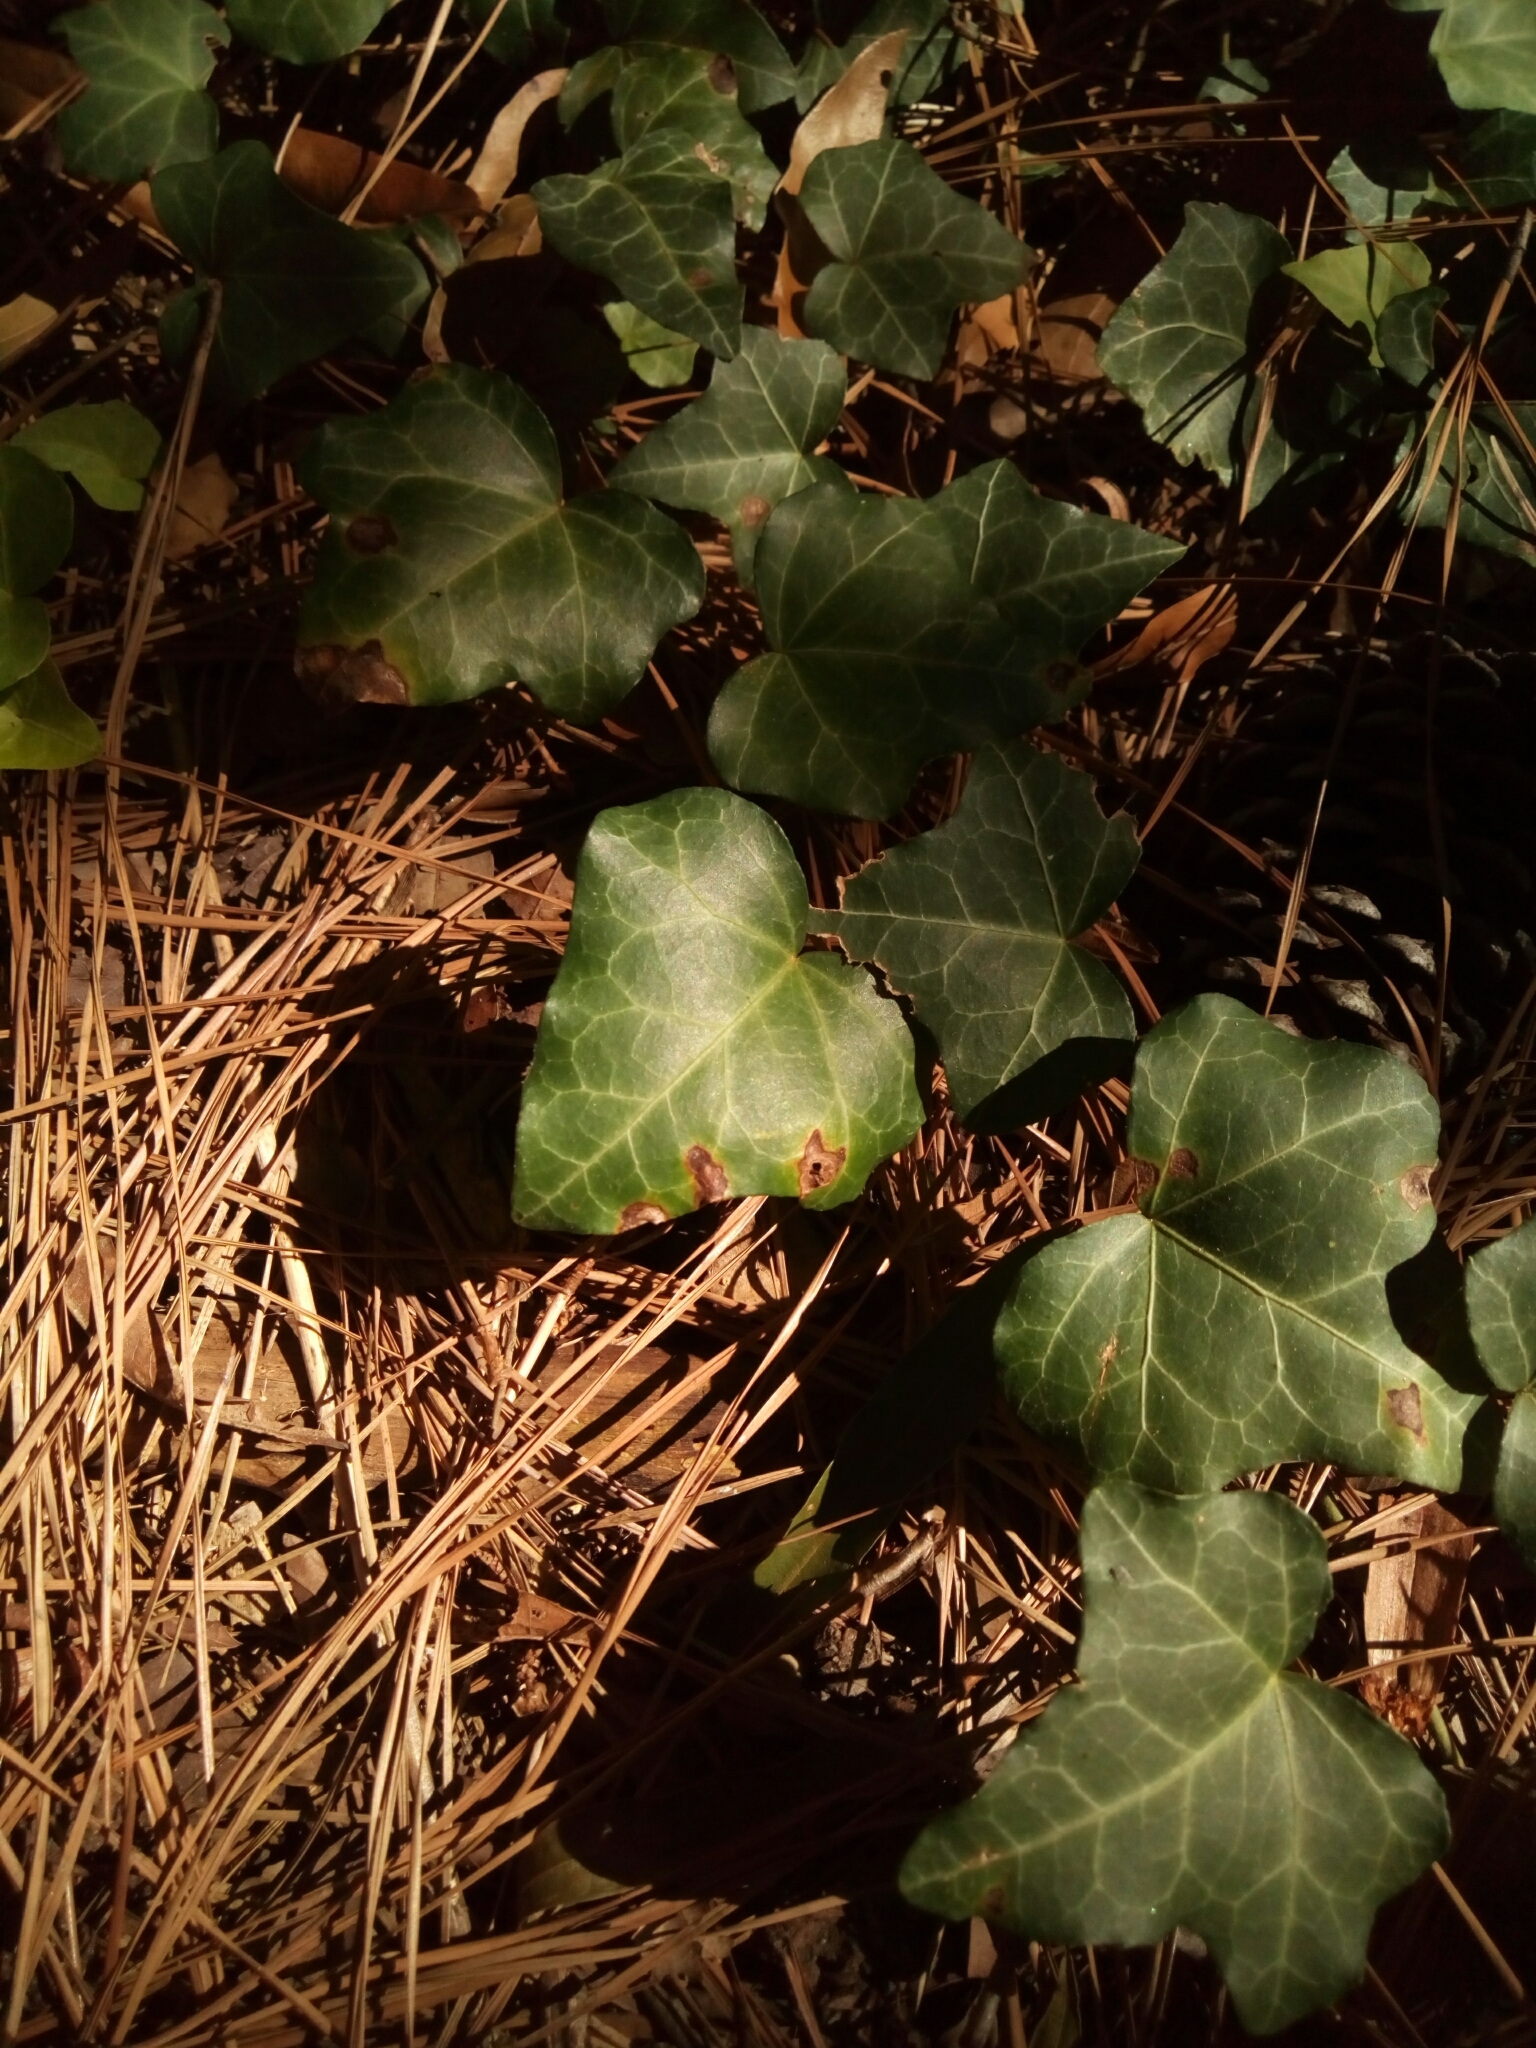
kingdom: Plantae
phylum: Tracheophyta
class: Magnoliopsida
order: Apiales
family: Araliaceae
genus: Hedera
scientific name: Hedera helix
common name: Ivy
